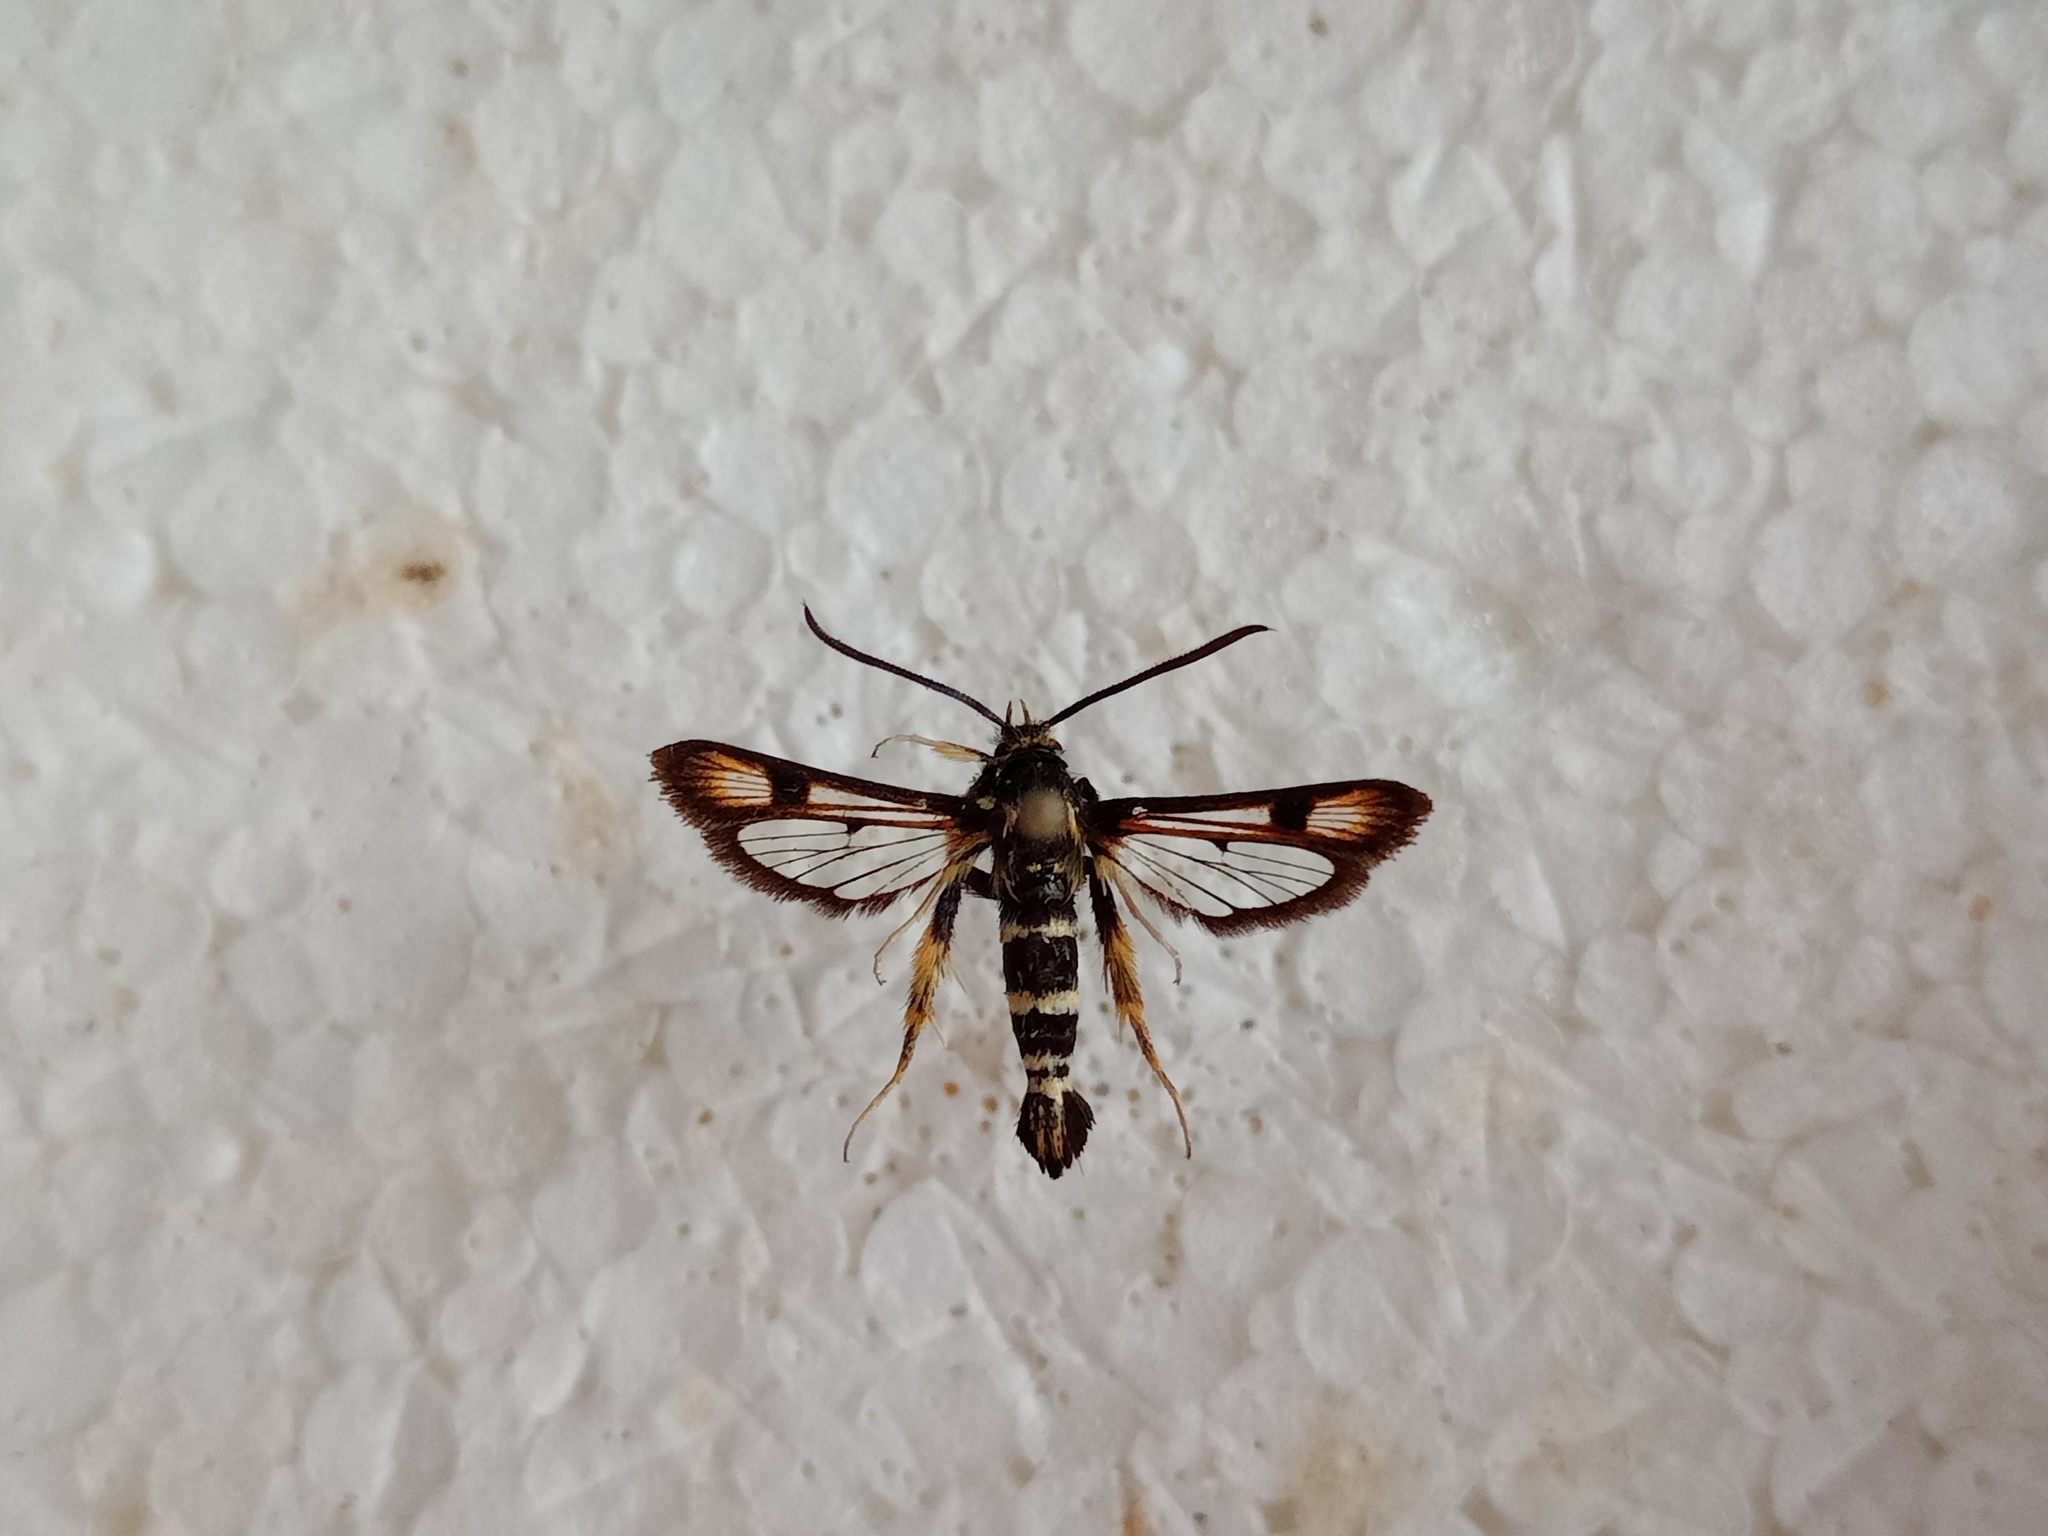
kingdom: Animalia
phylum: Arthropoda
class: Insecta
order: Lepidoptera
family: Sesiidae
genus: Pyropteron
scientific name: Pyropteron minianiformis
